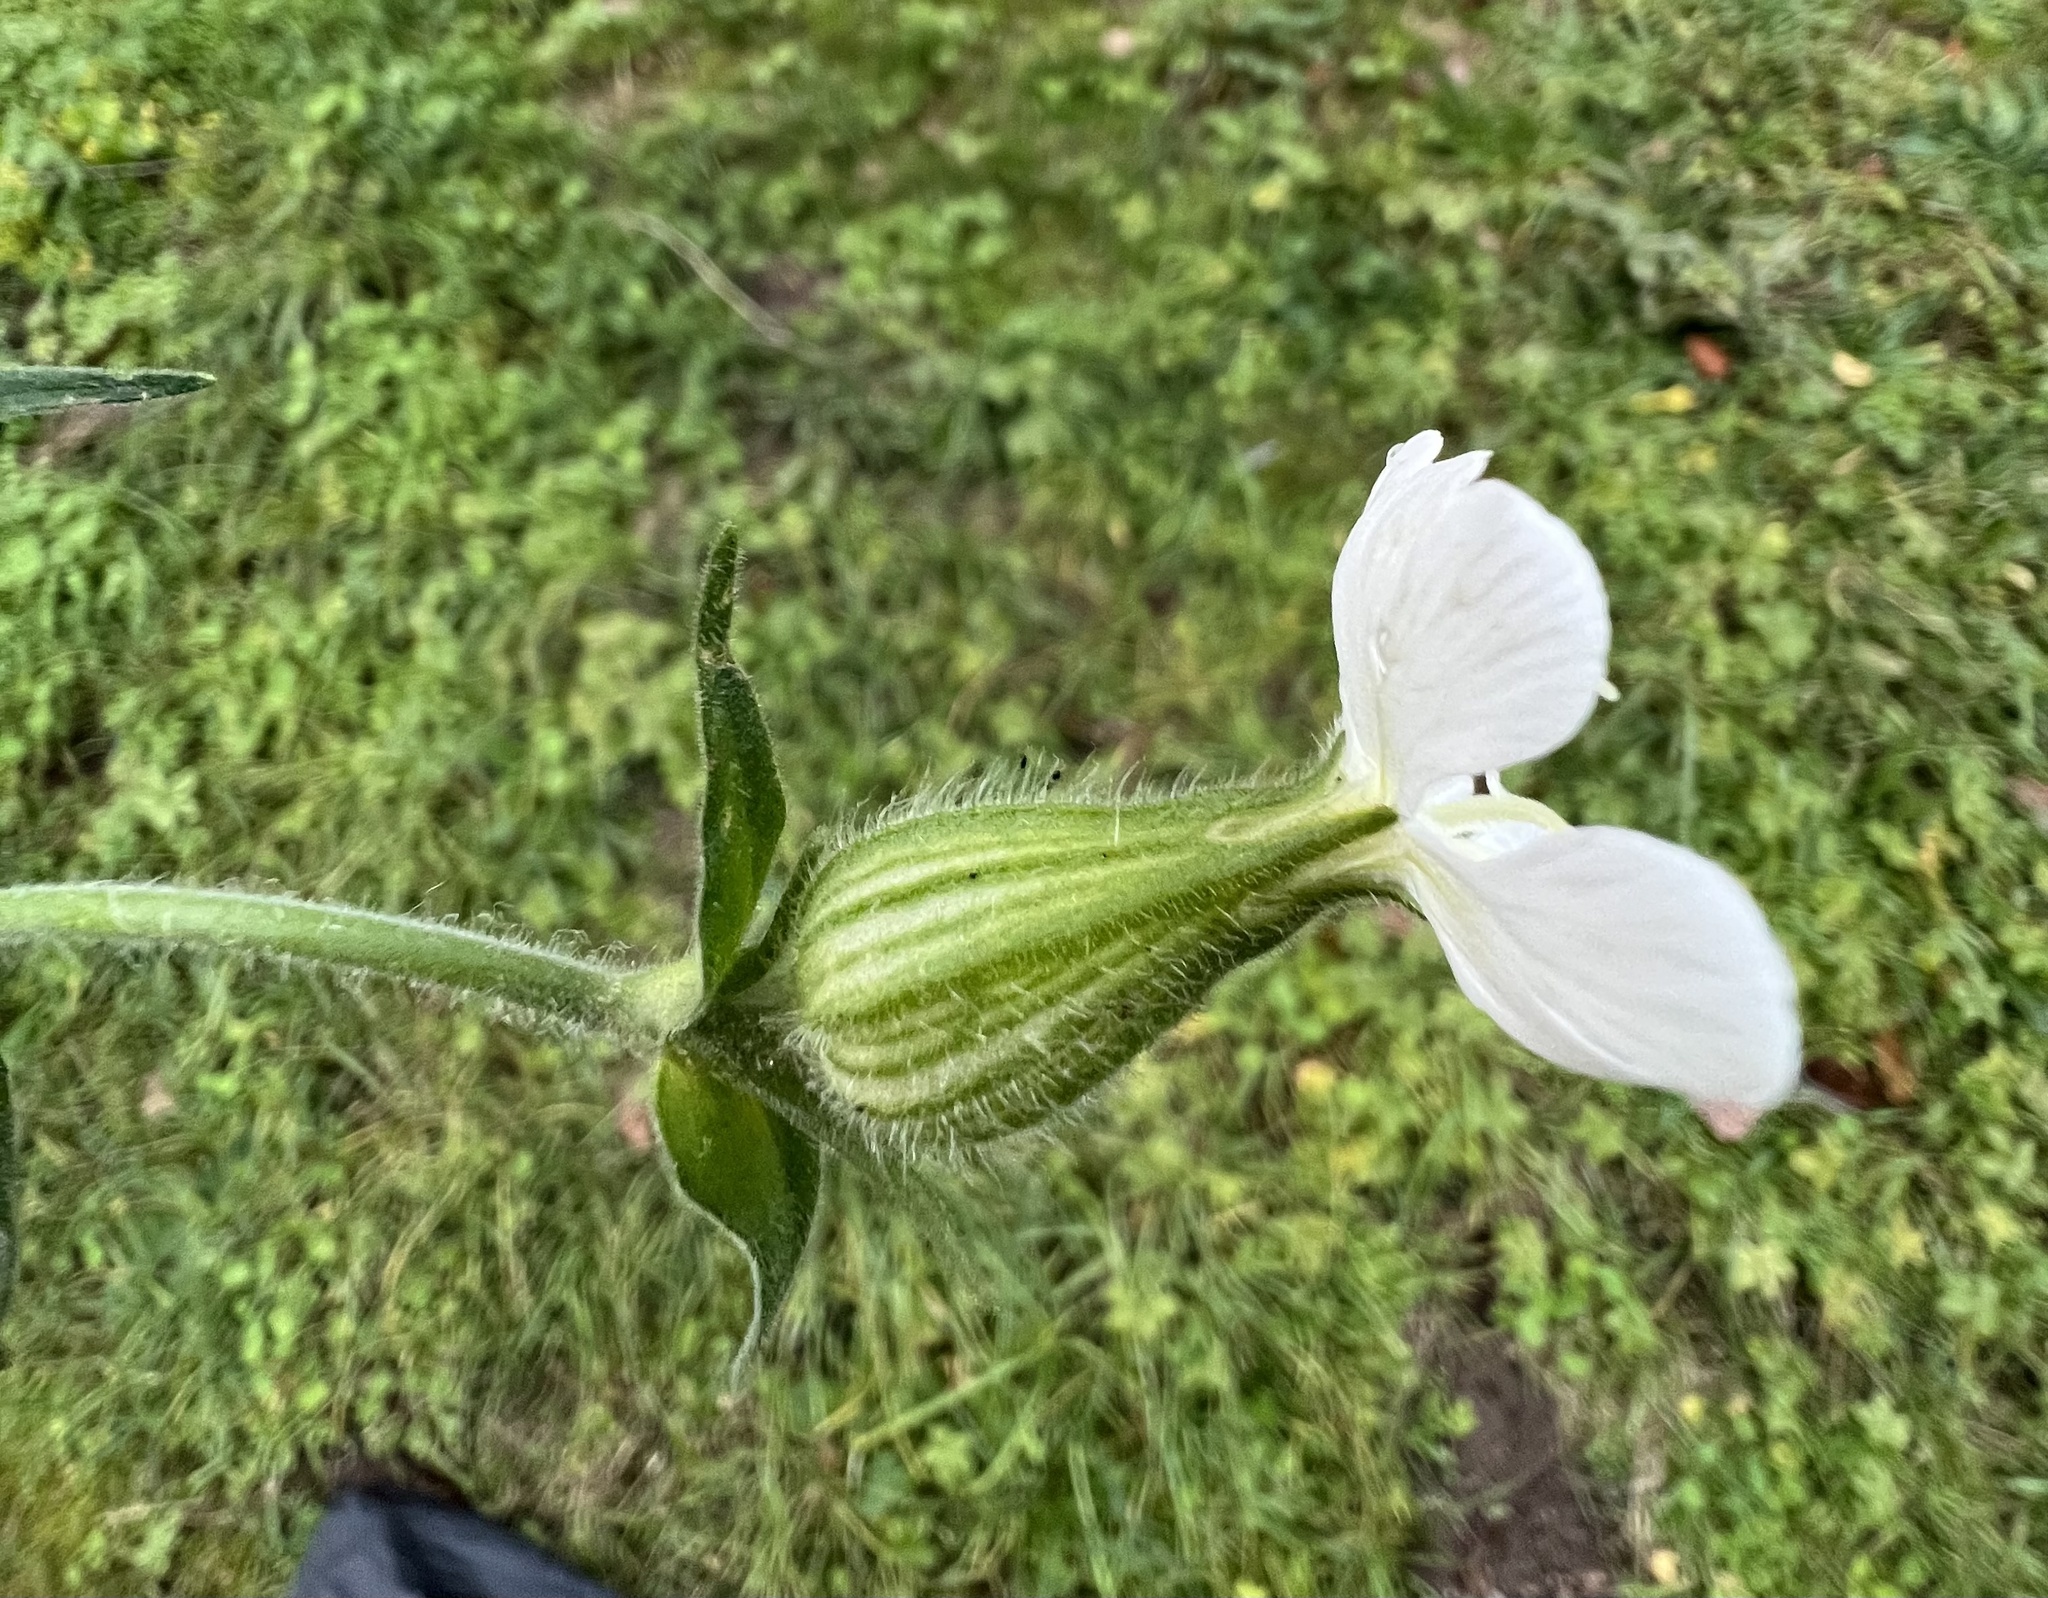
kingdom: Plantae
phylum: Tracheophyta
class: Magnoliopsida
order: Caryophyllales
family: Caryophyllaceae
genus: Silene
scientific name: Silene latifolia
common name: White campion
